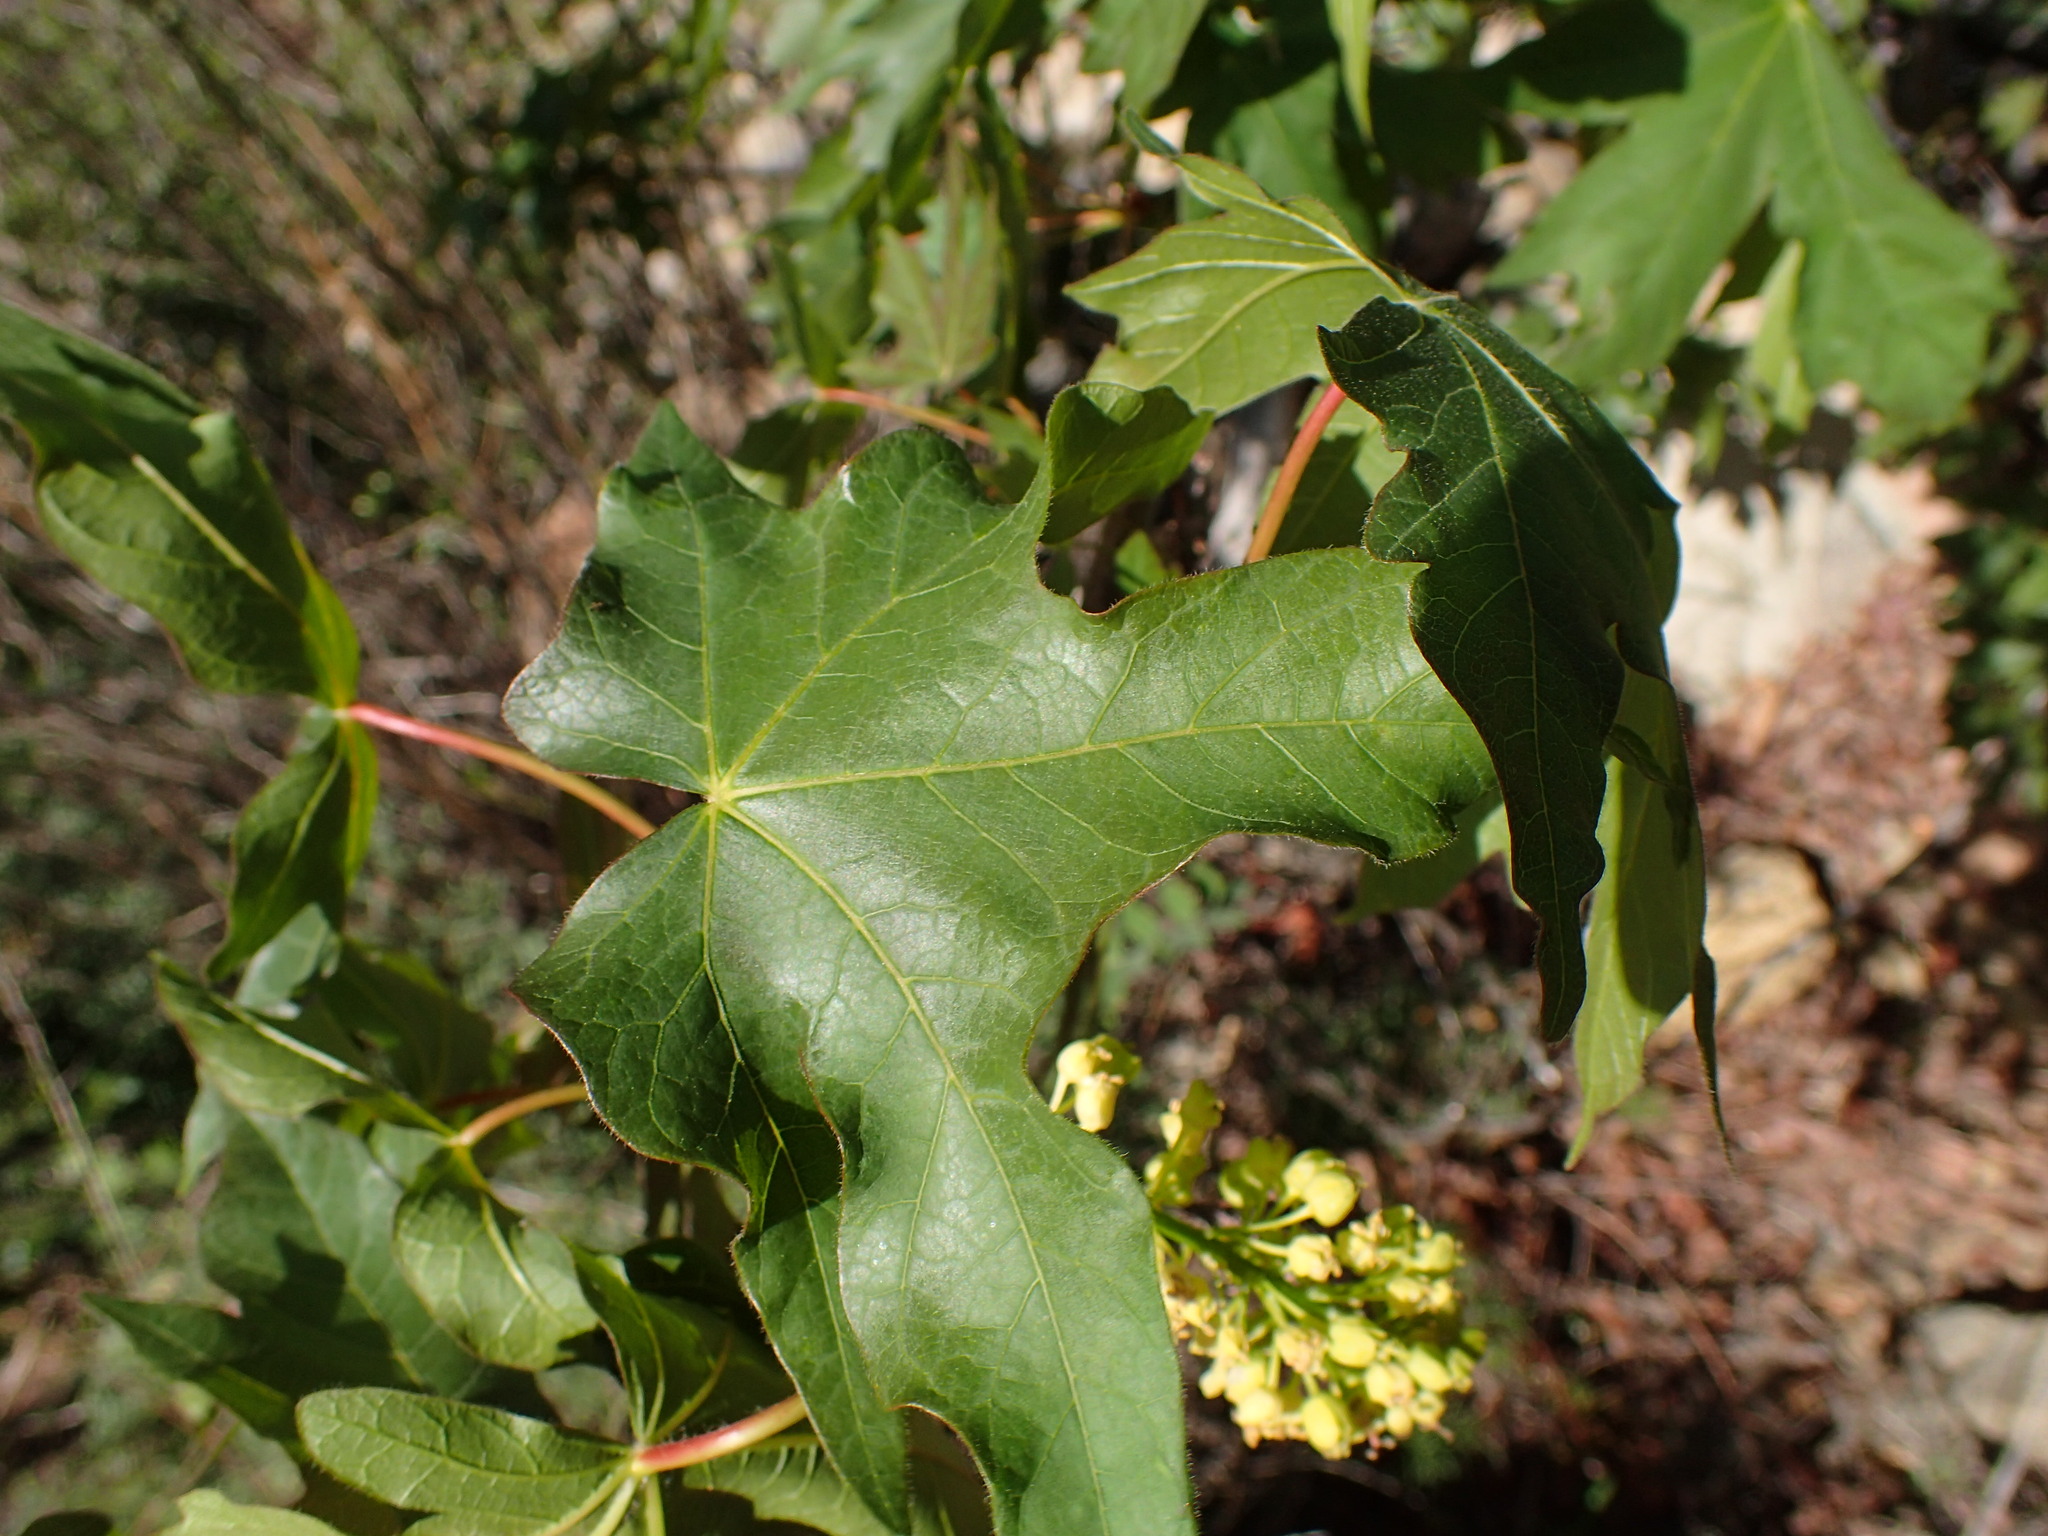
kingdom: Plantae
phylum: Tracheophyta
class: Magnoliopsida
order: Sapindales
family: Sapindaceae
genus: Acer
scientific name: Acer macrophyllum
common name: Oregon maple
